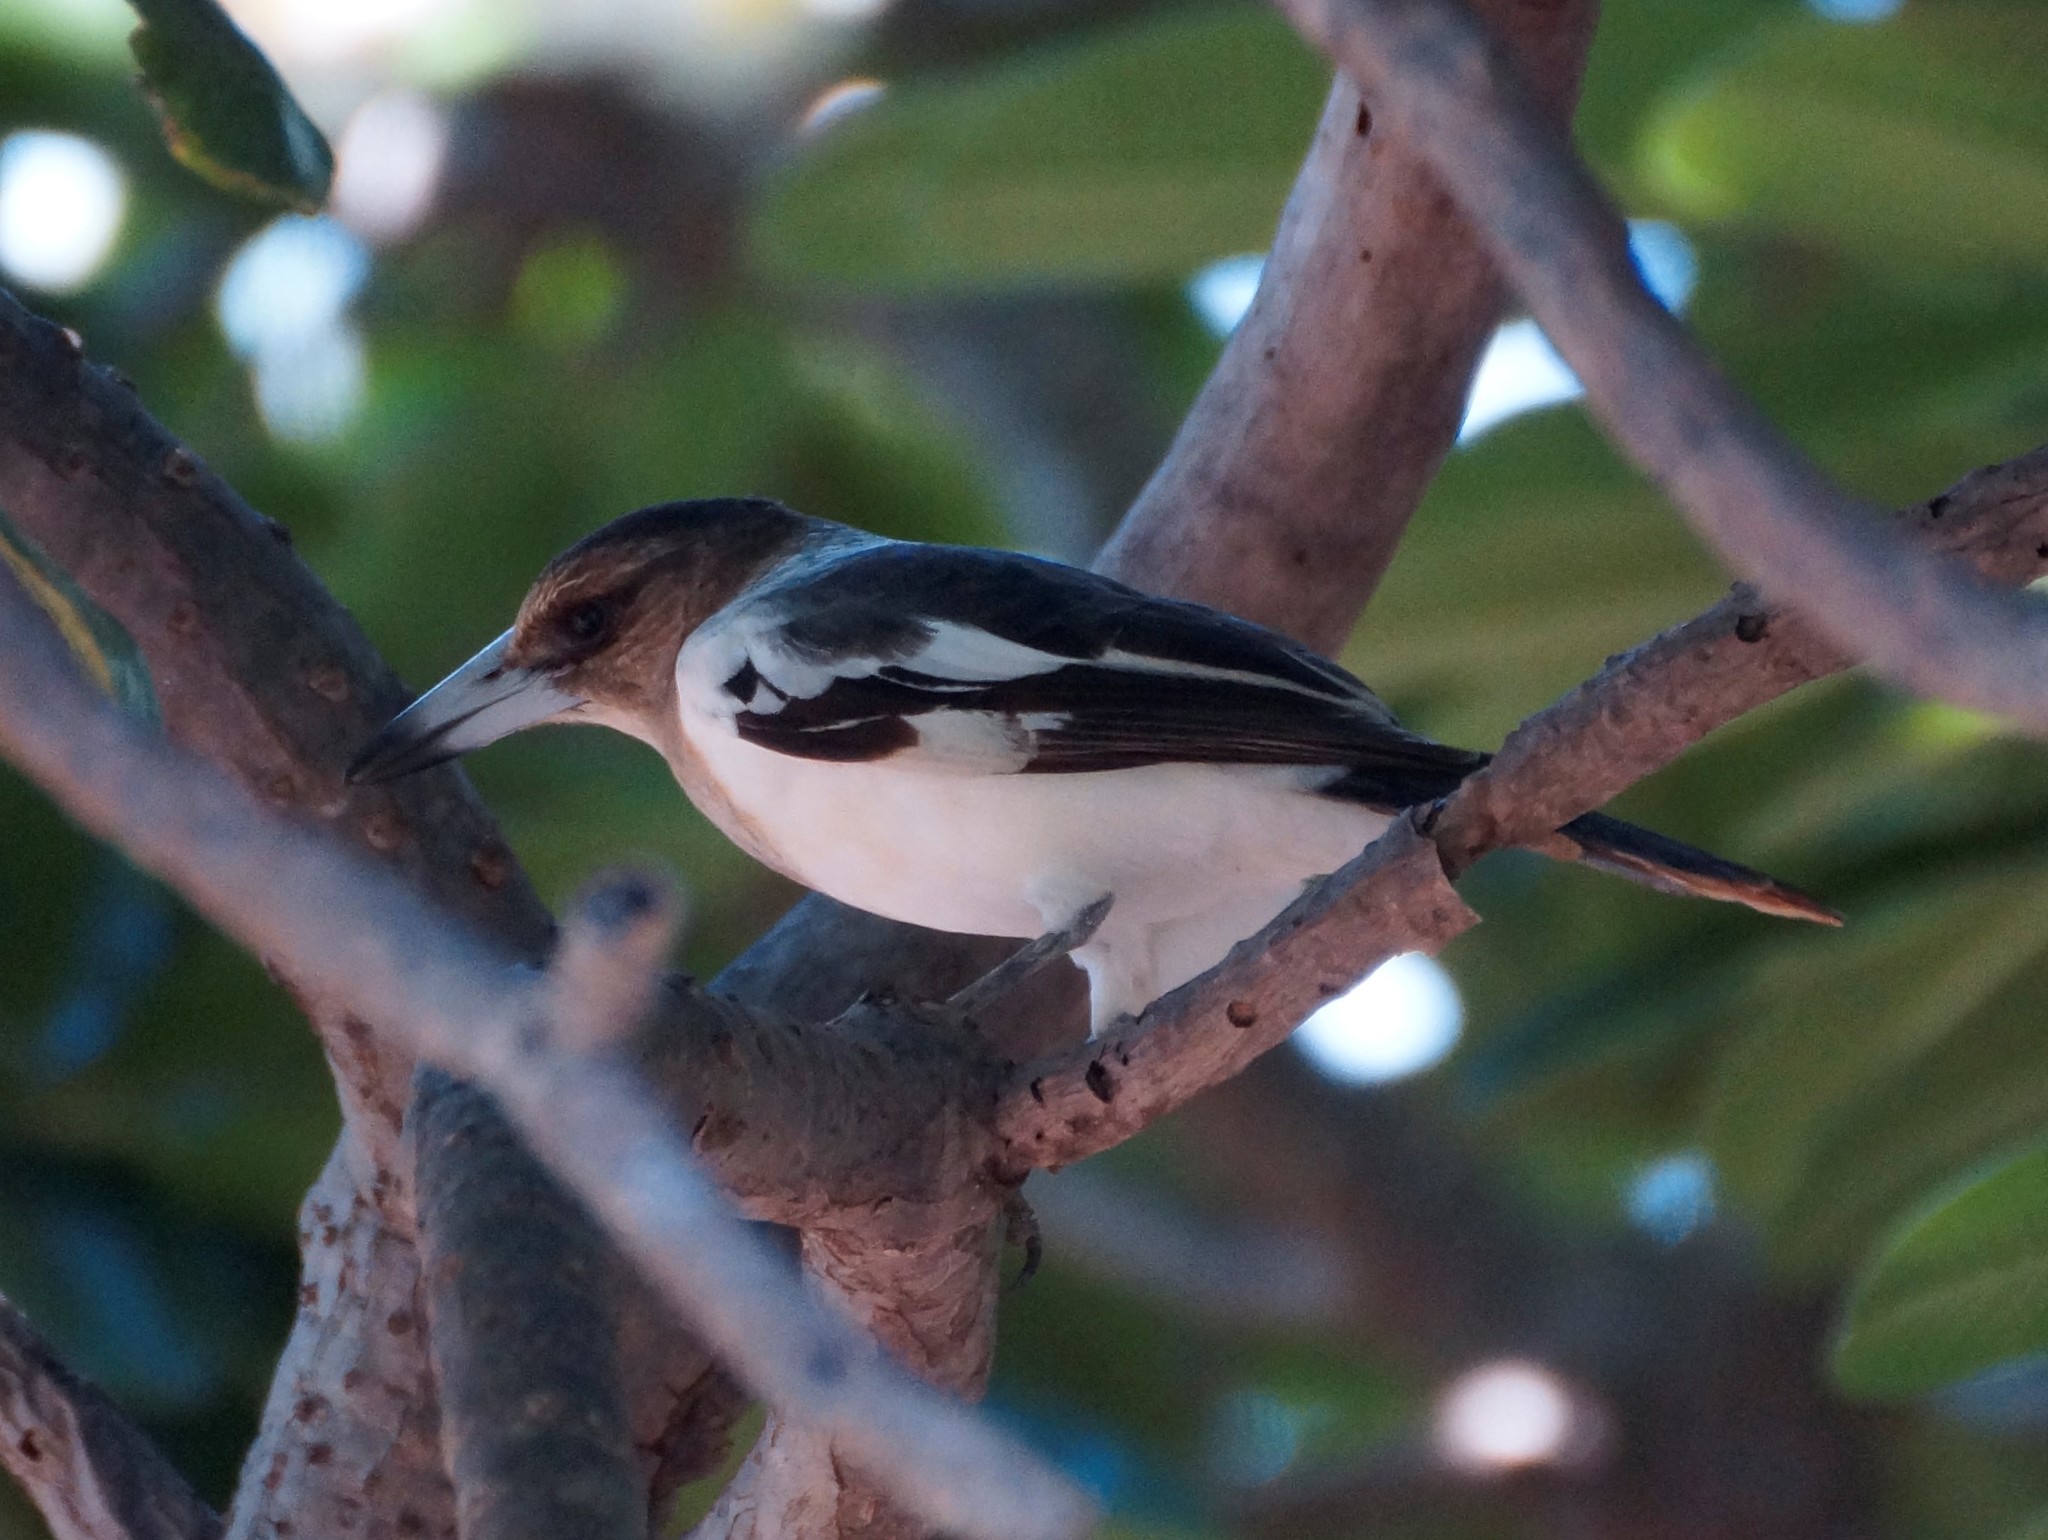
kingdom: Animalia
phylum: Chordata
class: Aves
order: Passeriformes
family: Cracticidae
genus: Cracticus
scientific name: Cracticus nigrogularis
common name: Pied butcherbird
